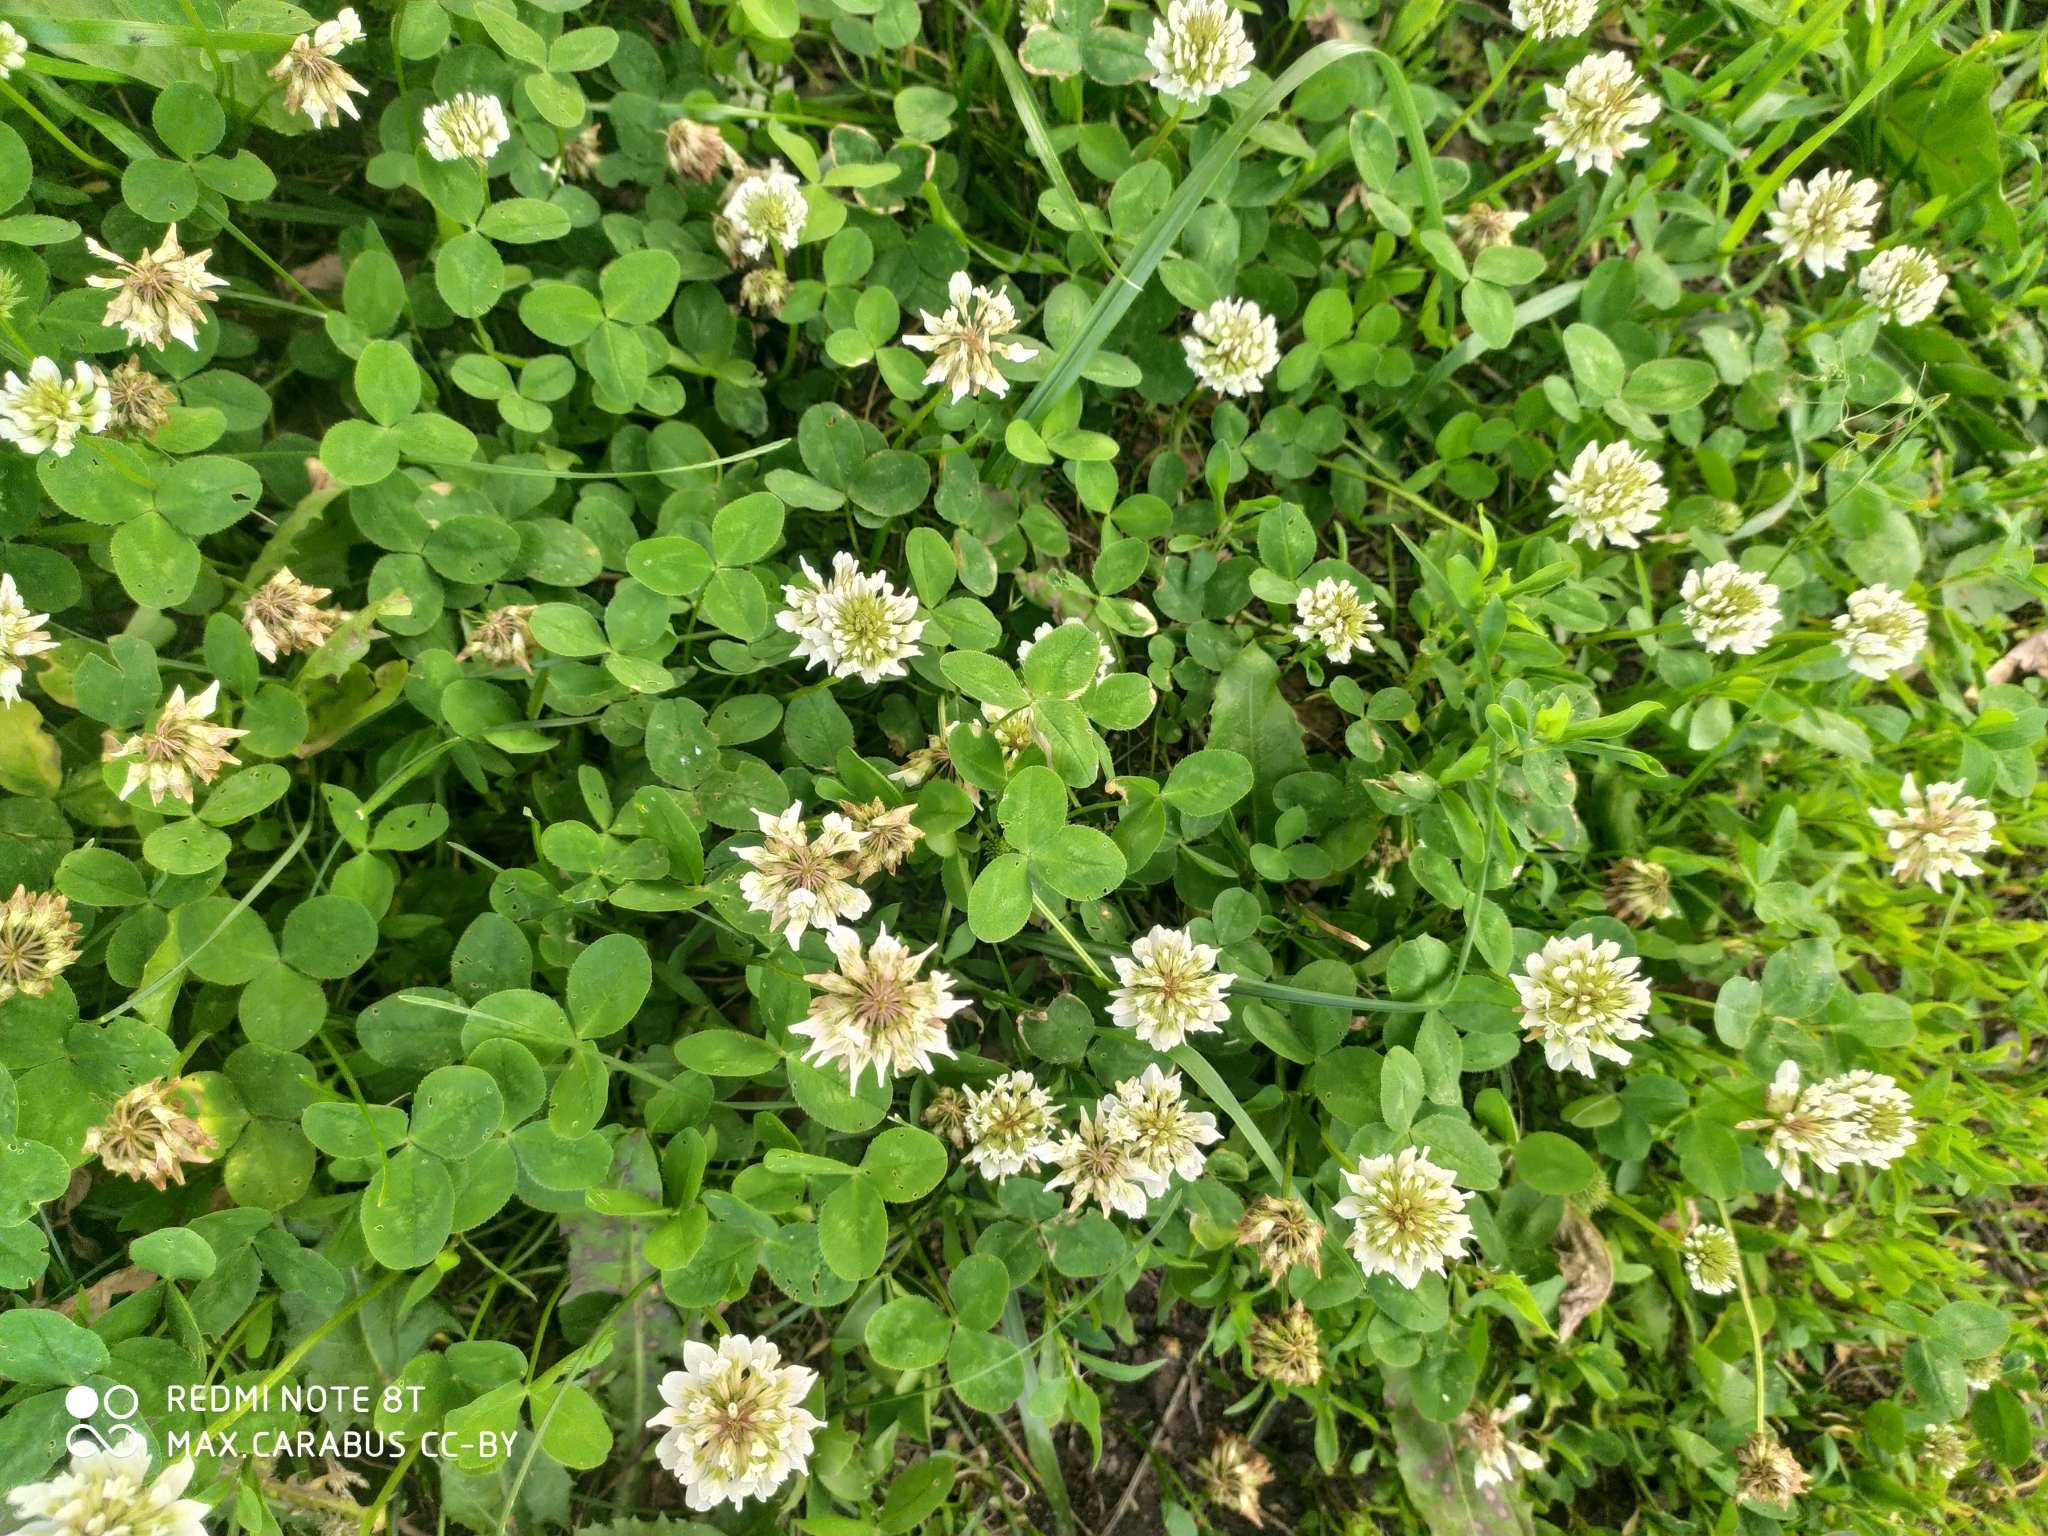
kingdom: Plantae
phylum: Tracheophyta
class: Magnoliopsida
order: Fabales
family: Fabaceae
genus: Trifolium
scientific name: Trifolium repens
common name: White clover
